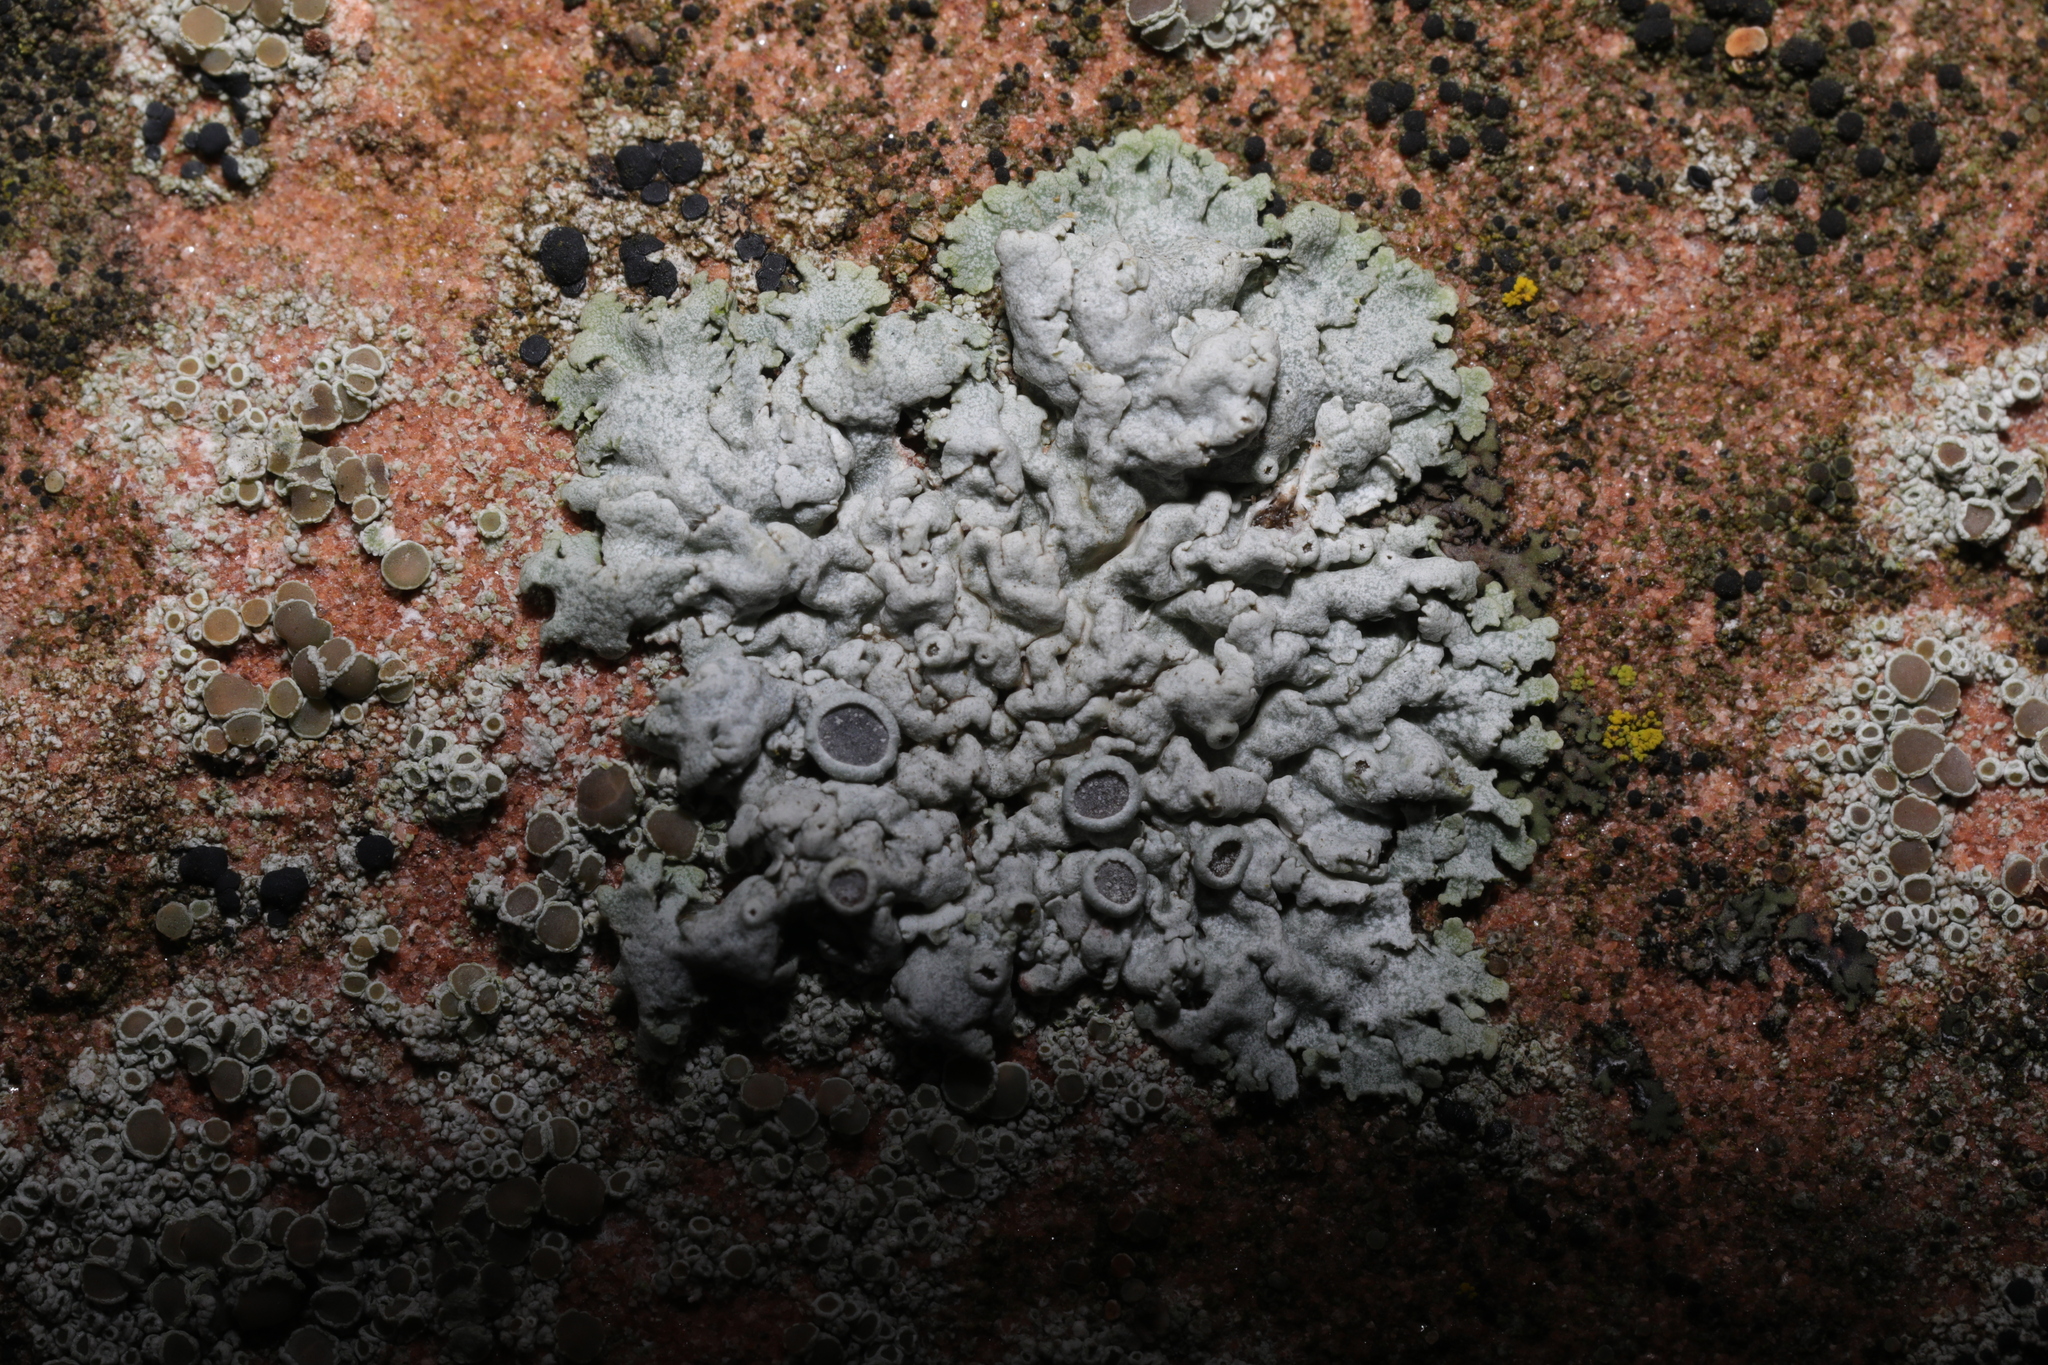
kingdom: Fungi
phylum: Ascomycota
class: Lecanoromycetes
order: Caliciales
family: Physciaceae
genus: Physcia
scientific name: Physcia aipolia
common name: Hoary rosette lichen
